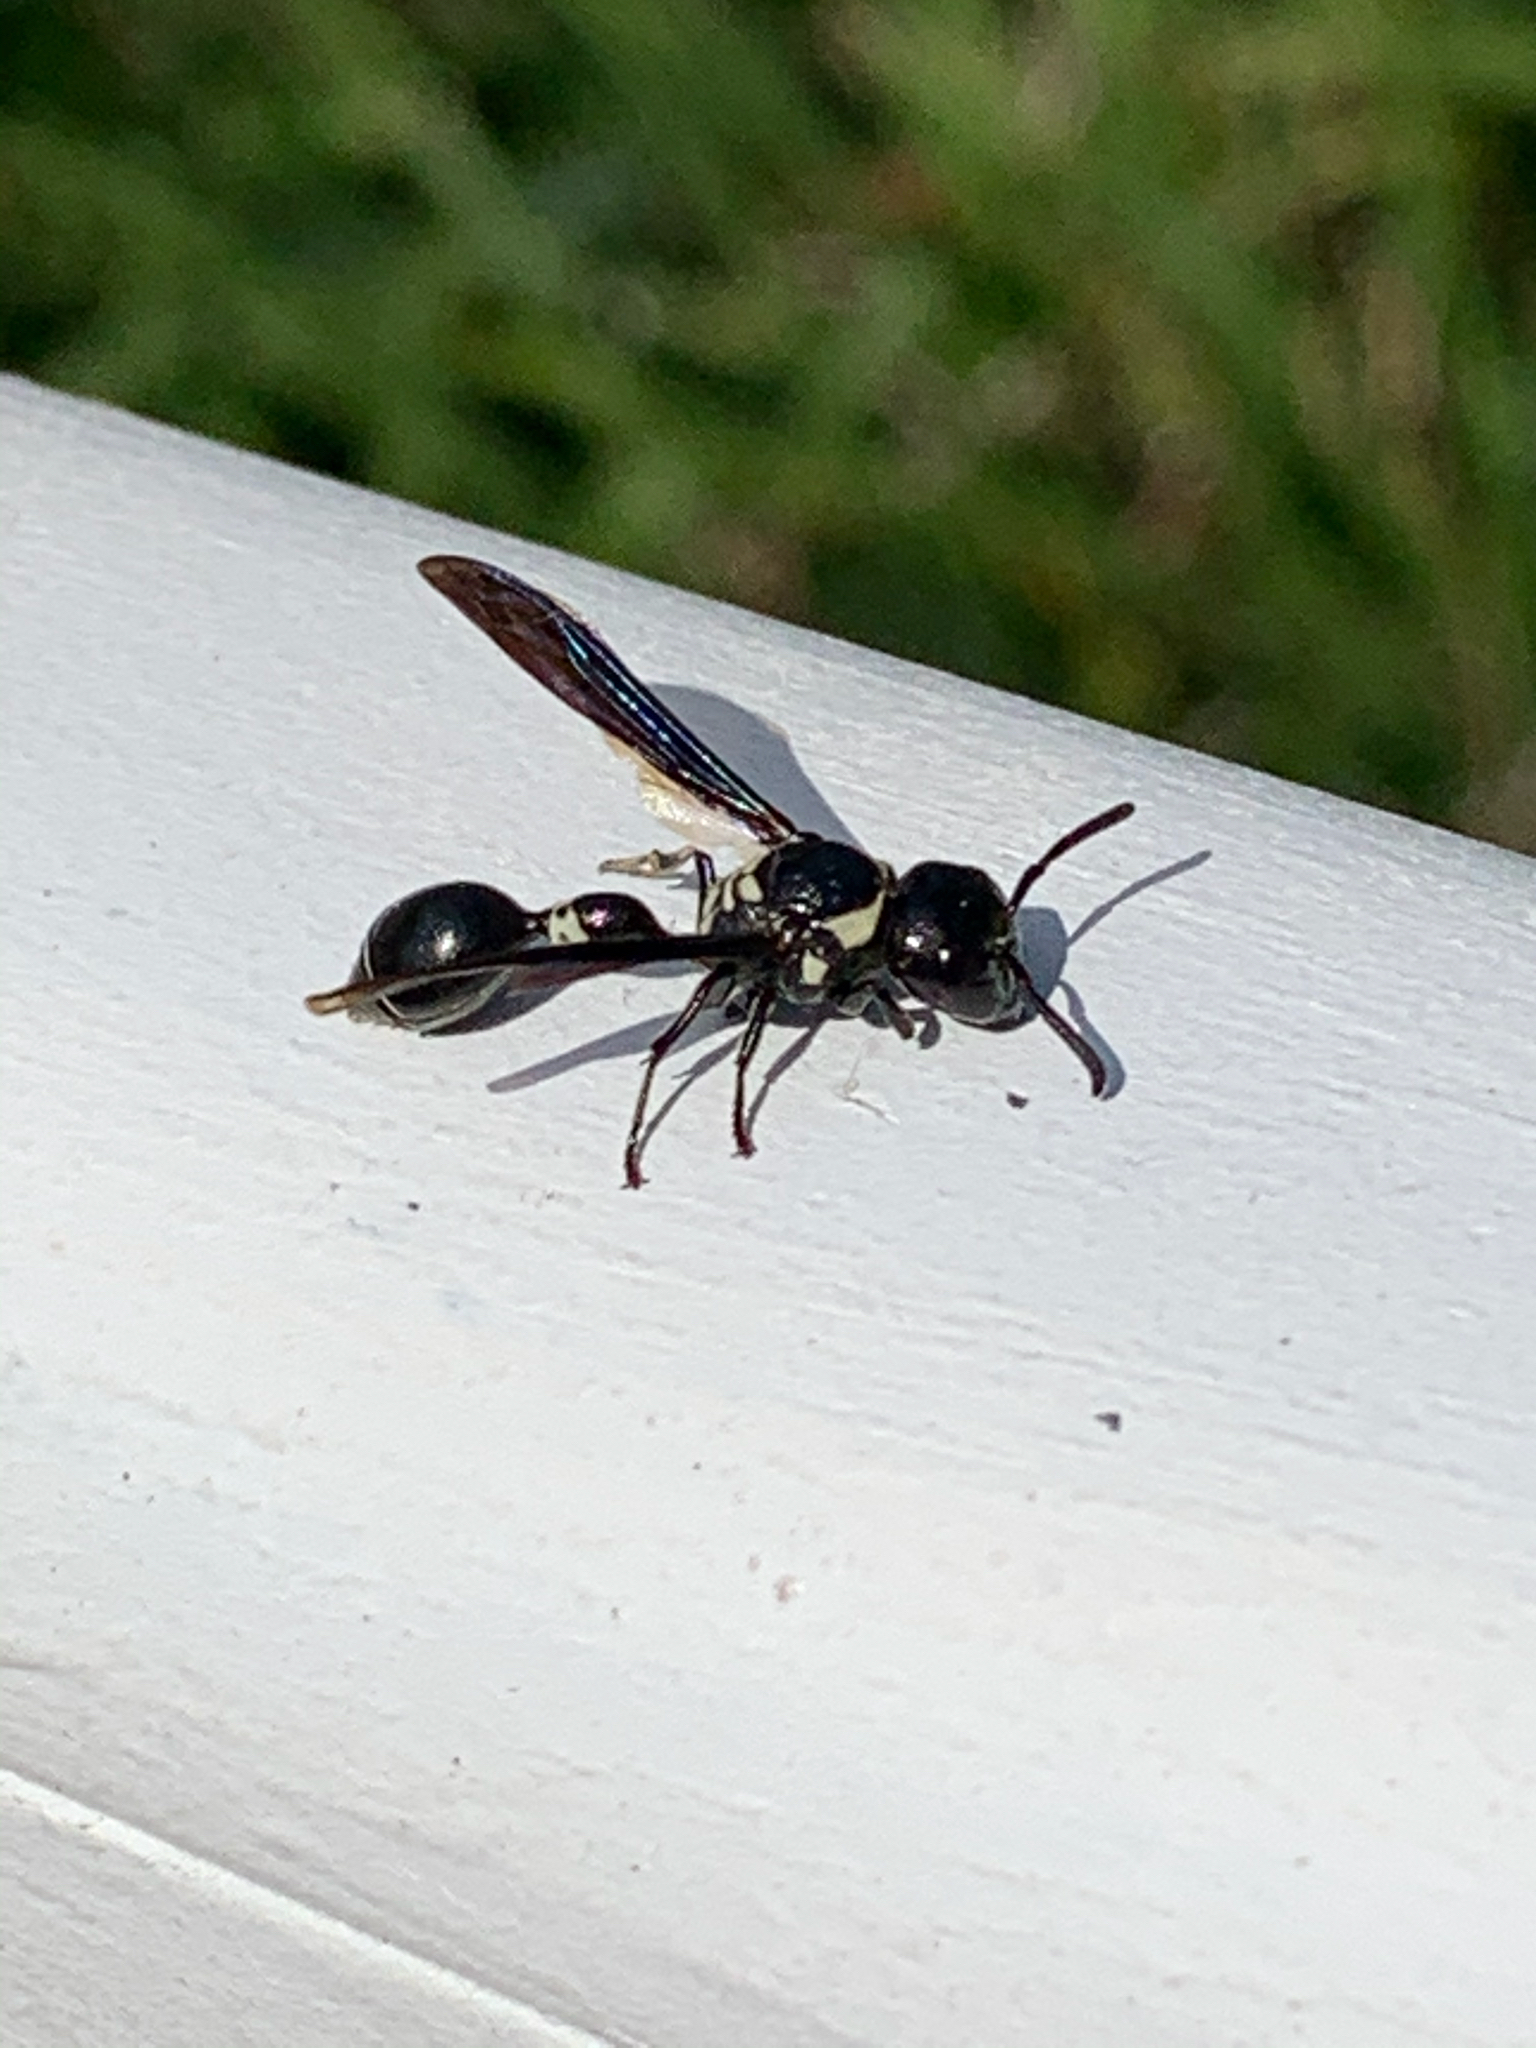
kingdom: Animalia
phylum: Arthropoda
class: Insecta
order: Hymenoptera
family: Eumenidae
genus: Zethus
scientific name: Zethus spinipes
